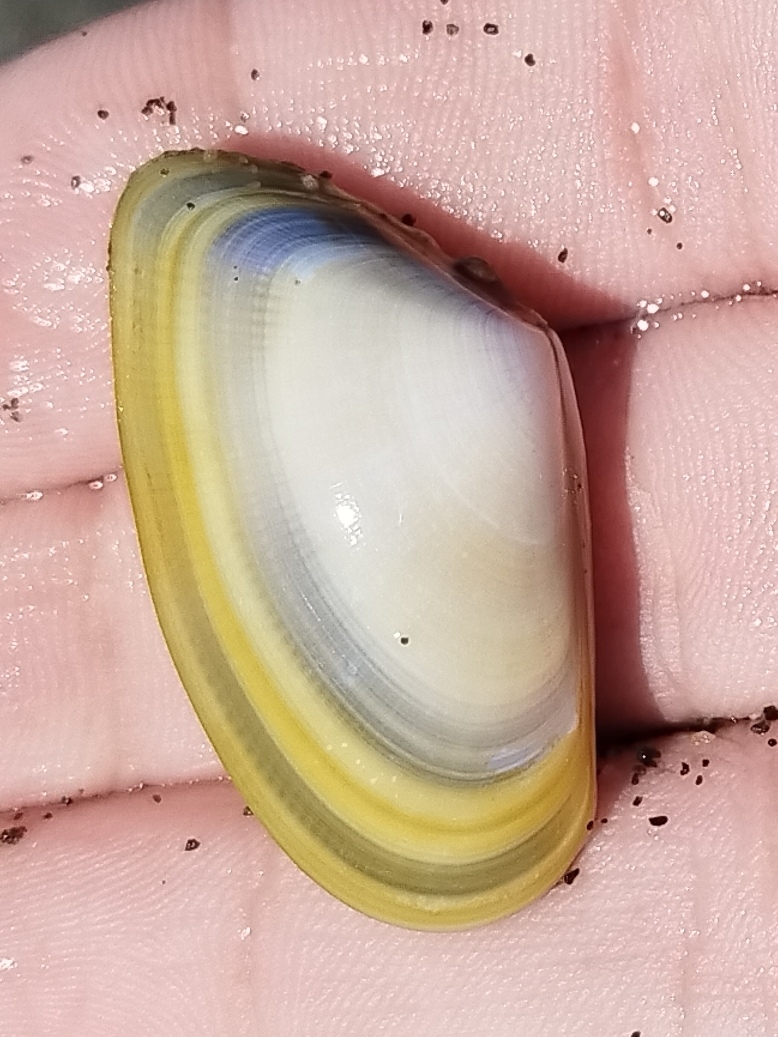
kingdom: Animalia
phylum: Mollusca
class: Bivalvia
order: Cardiida
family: Donacidae
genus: Donax
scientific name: Donax trunculus
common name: Truncate donax
